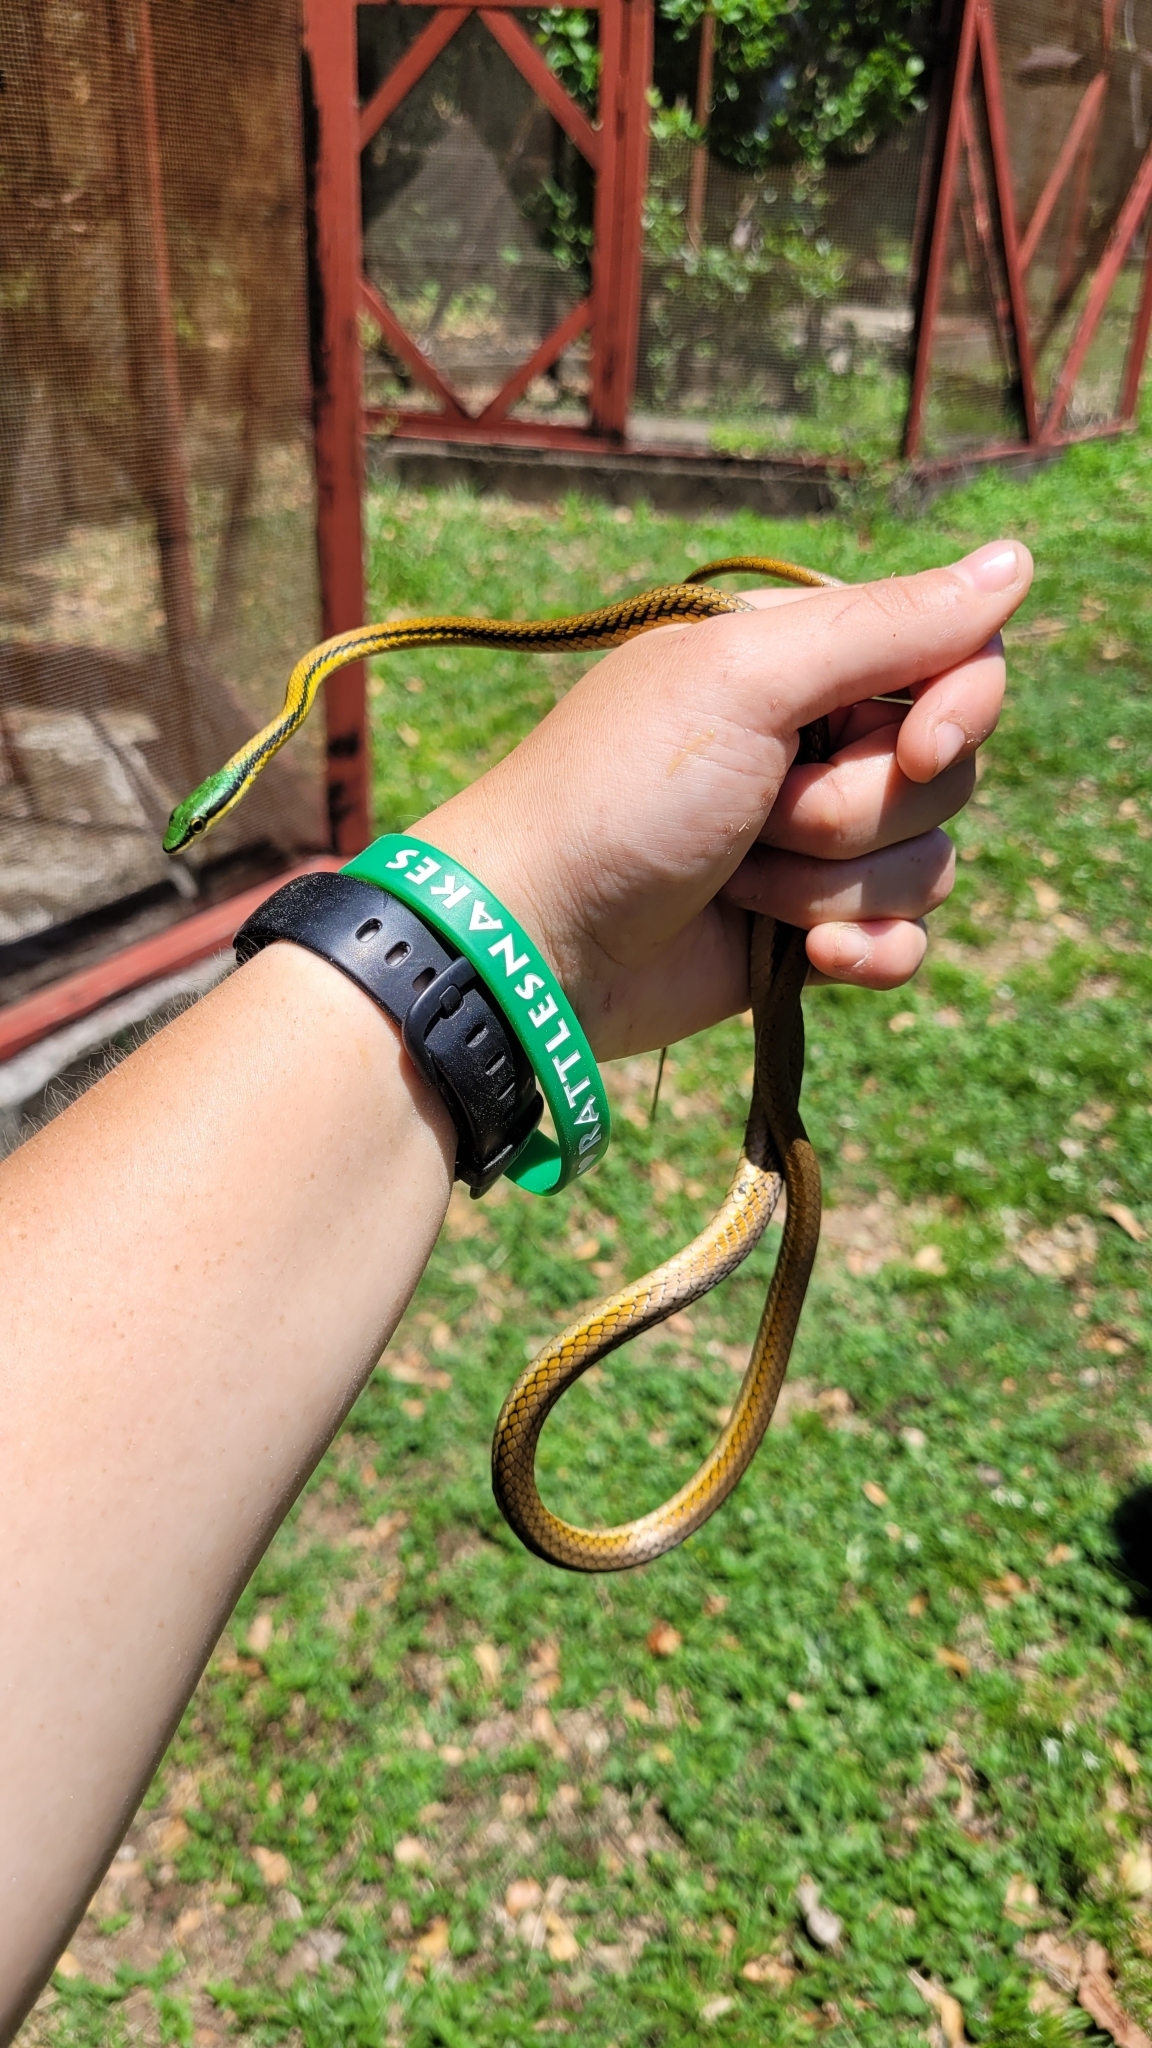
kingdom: Animalia
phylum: Chordata
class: Squamata
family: Colubridae
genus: Leptophis
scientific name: Leptophis mexicanus
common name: Mexican parrot snake
